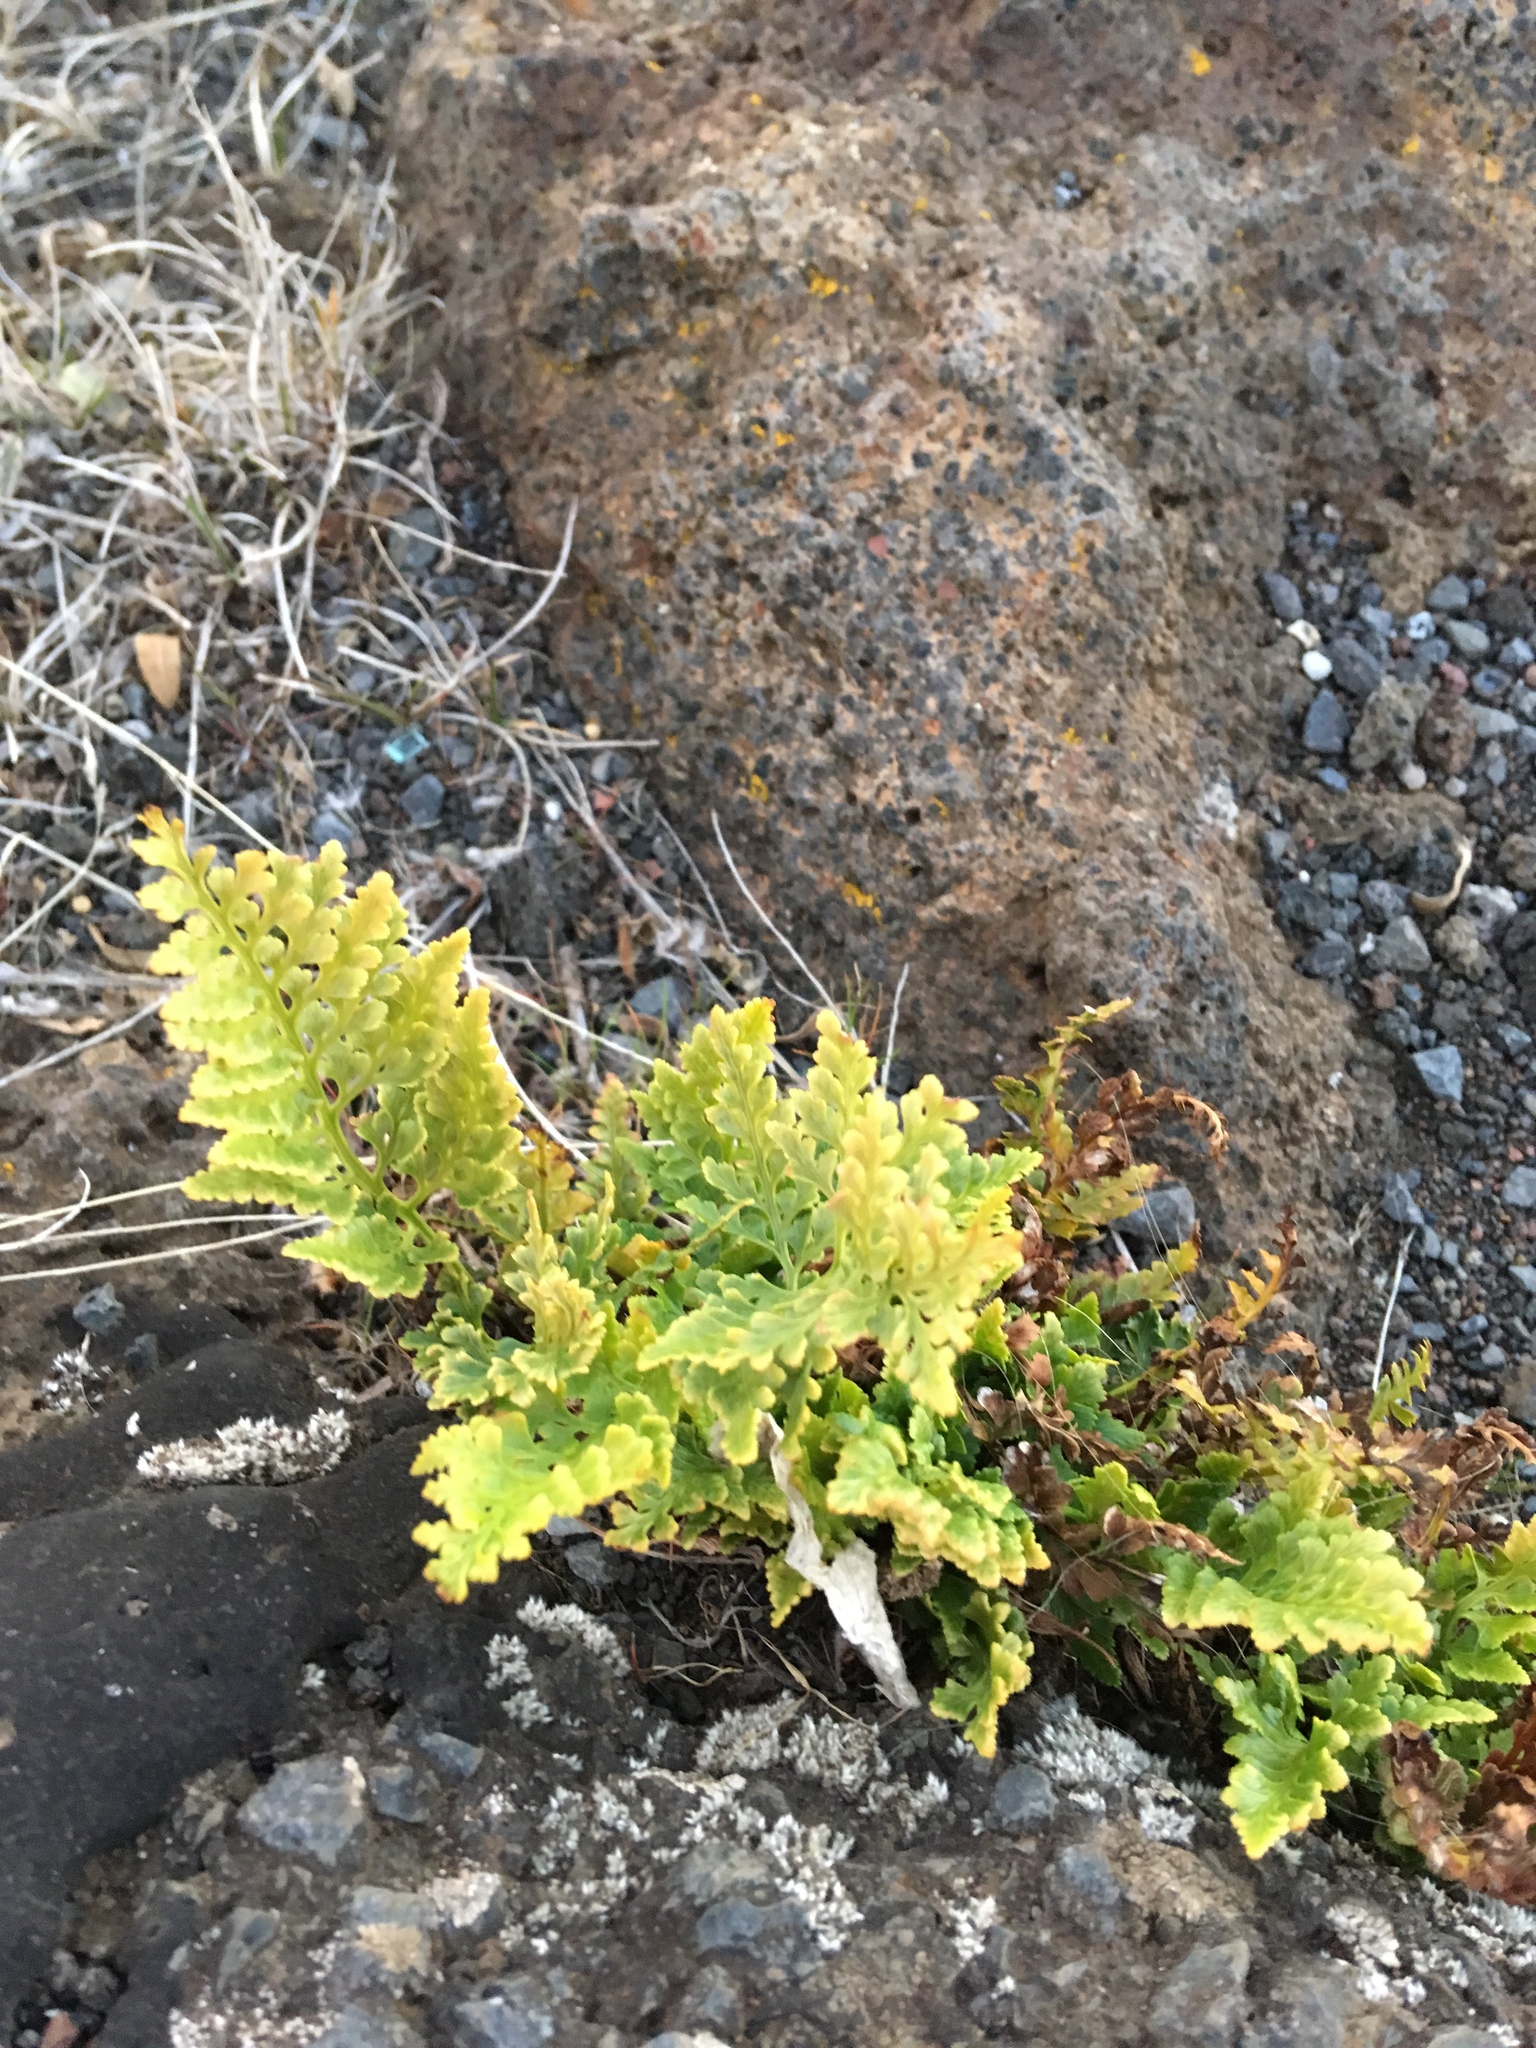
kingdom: Plantae
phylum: Tracheophyta
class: Polypodiopsida
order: Polypodiales
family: Aspleniaceae
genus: Asplenium
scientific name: Asplenium adiantum-nigrum
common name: Black spleenwort
